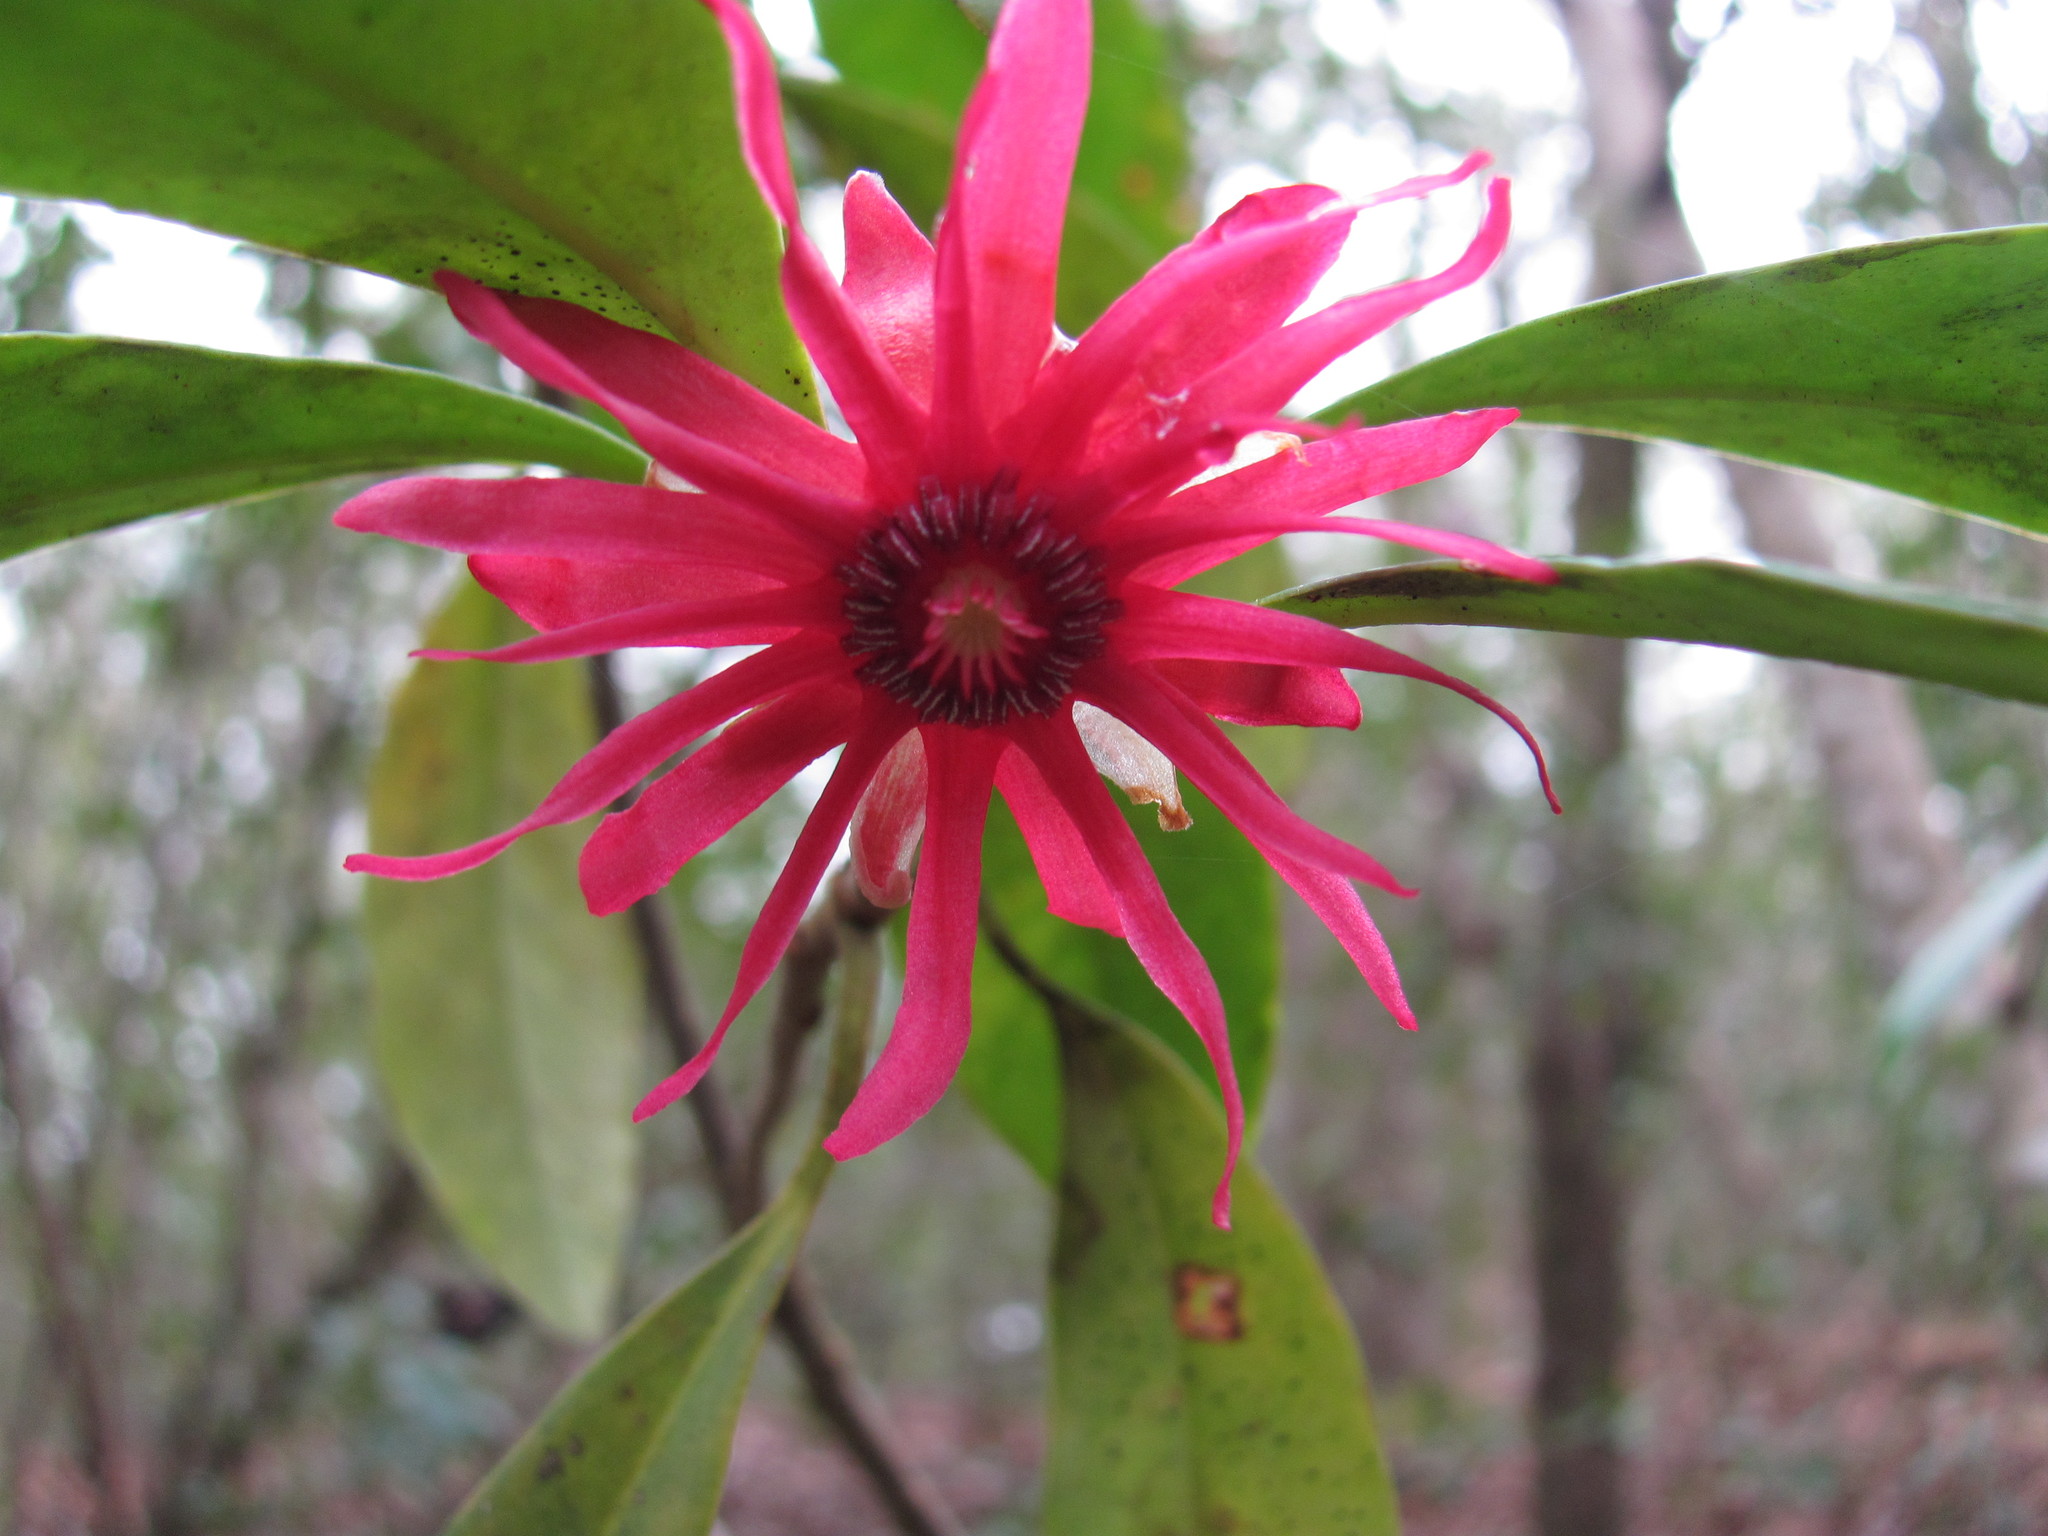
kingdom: Plantae
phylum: Tracheophyta
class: Magnoliopsida
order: Austrobaileyales
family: Schisandraceae
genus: Illicium
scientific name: Illicium floridanum
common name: Florida anisetree
